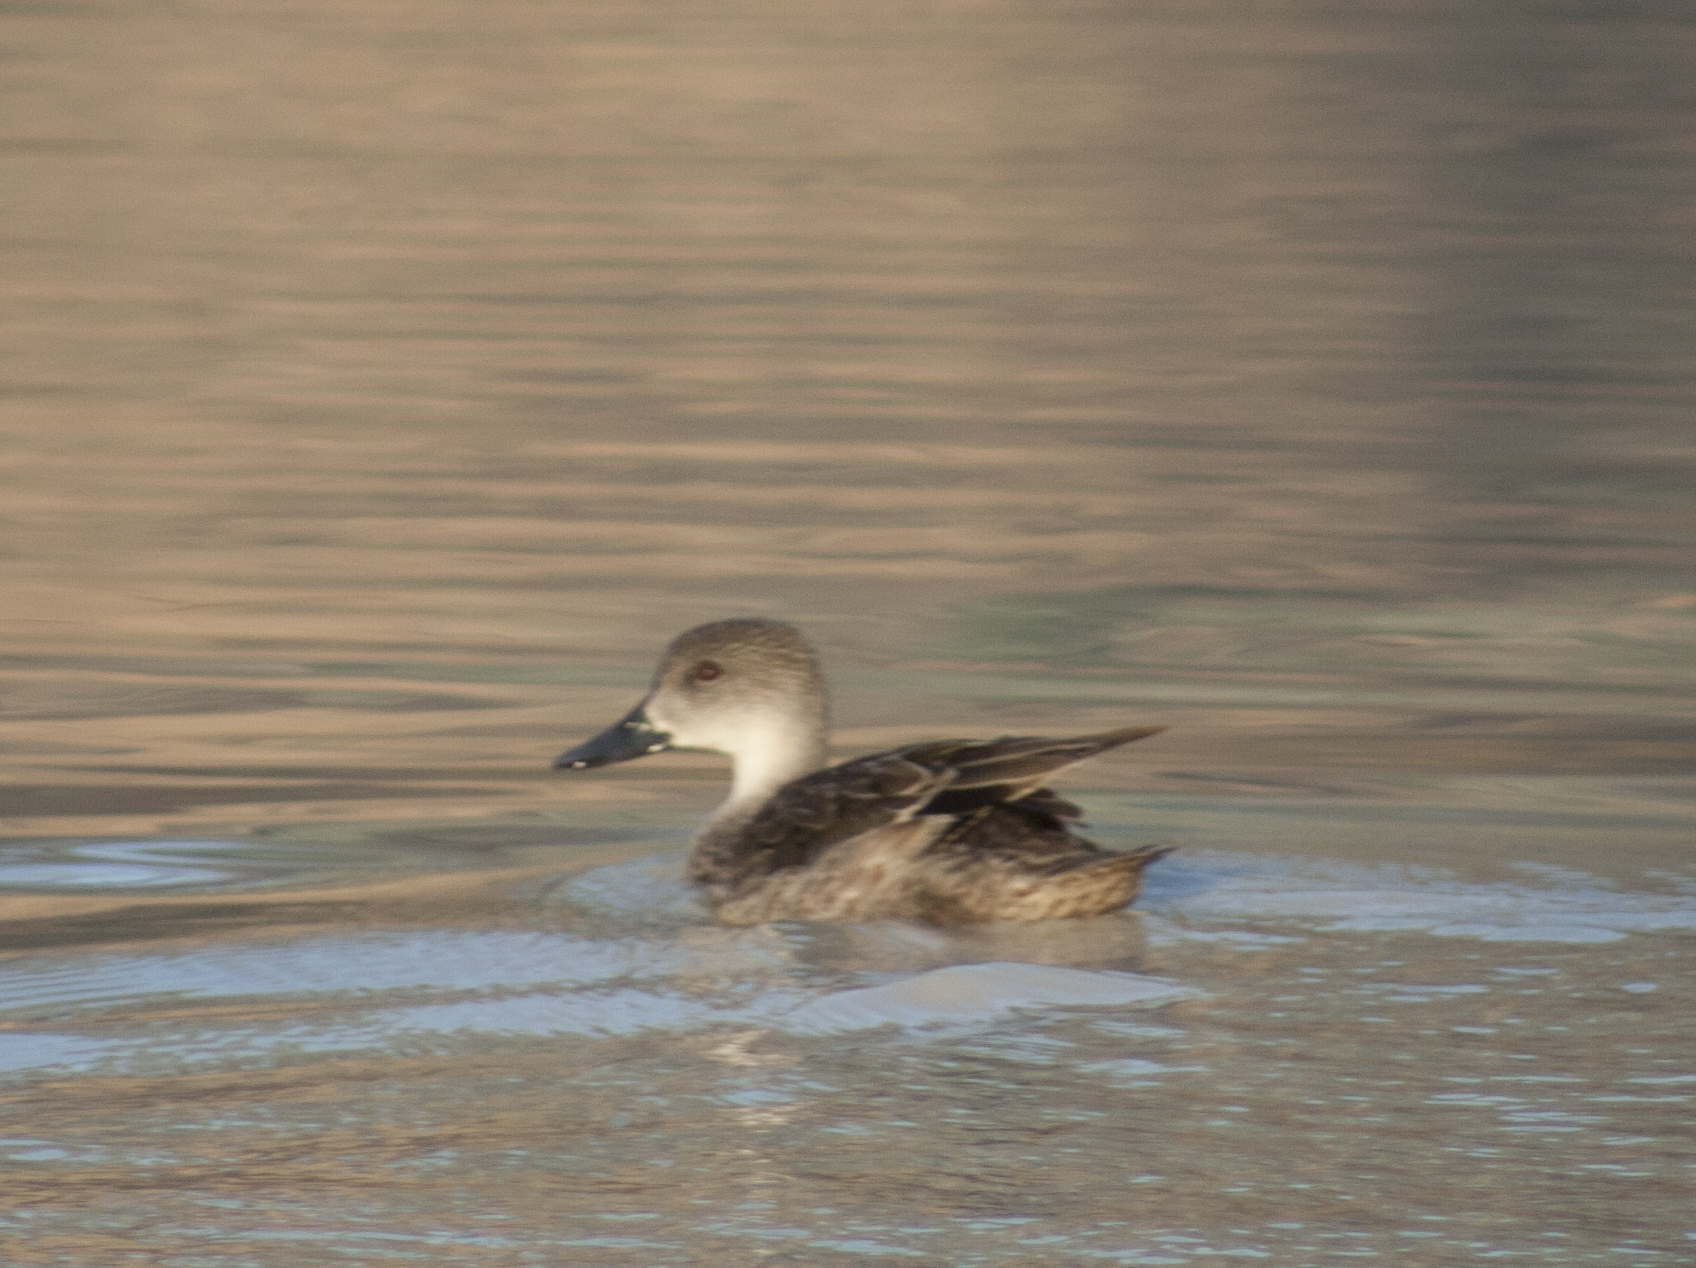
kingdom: Animalia
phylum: Chordata
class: Aves
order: Anseriformes
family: Anatidae
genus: Anas
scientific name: Anas gracilis
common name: Grey teal
